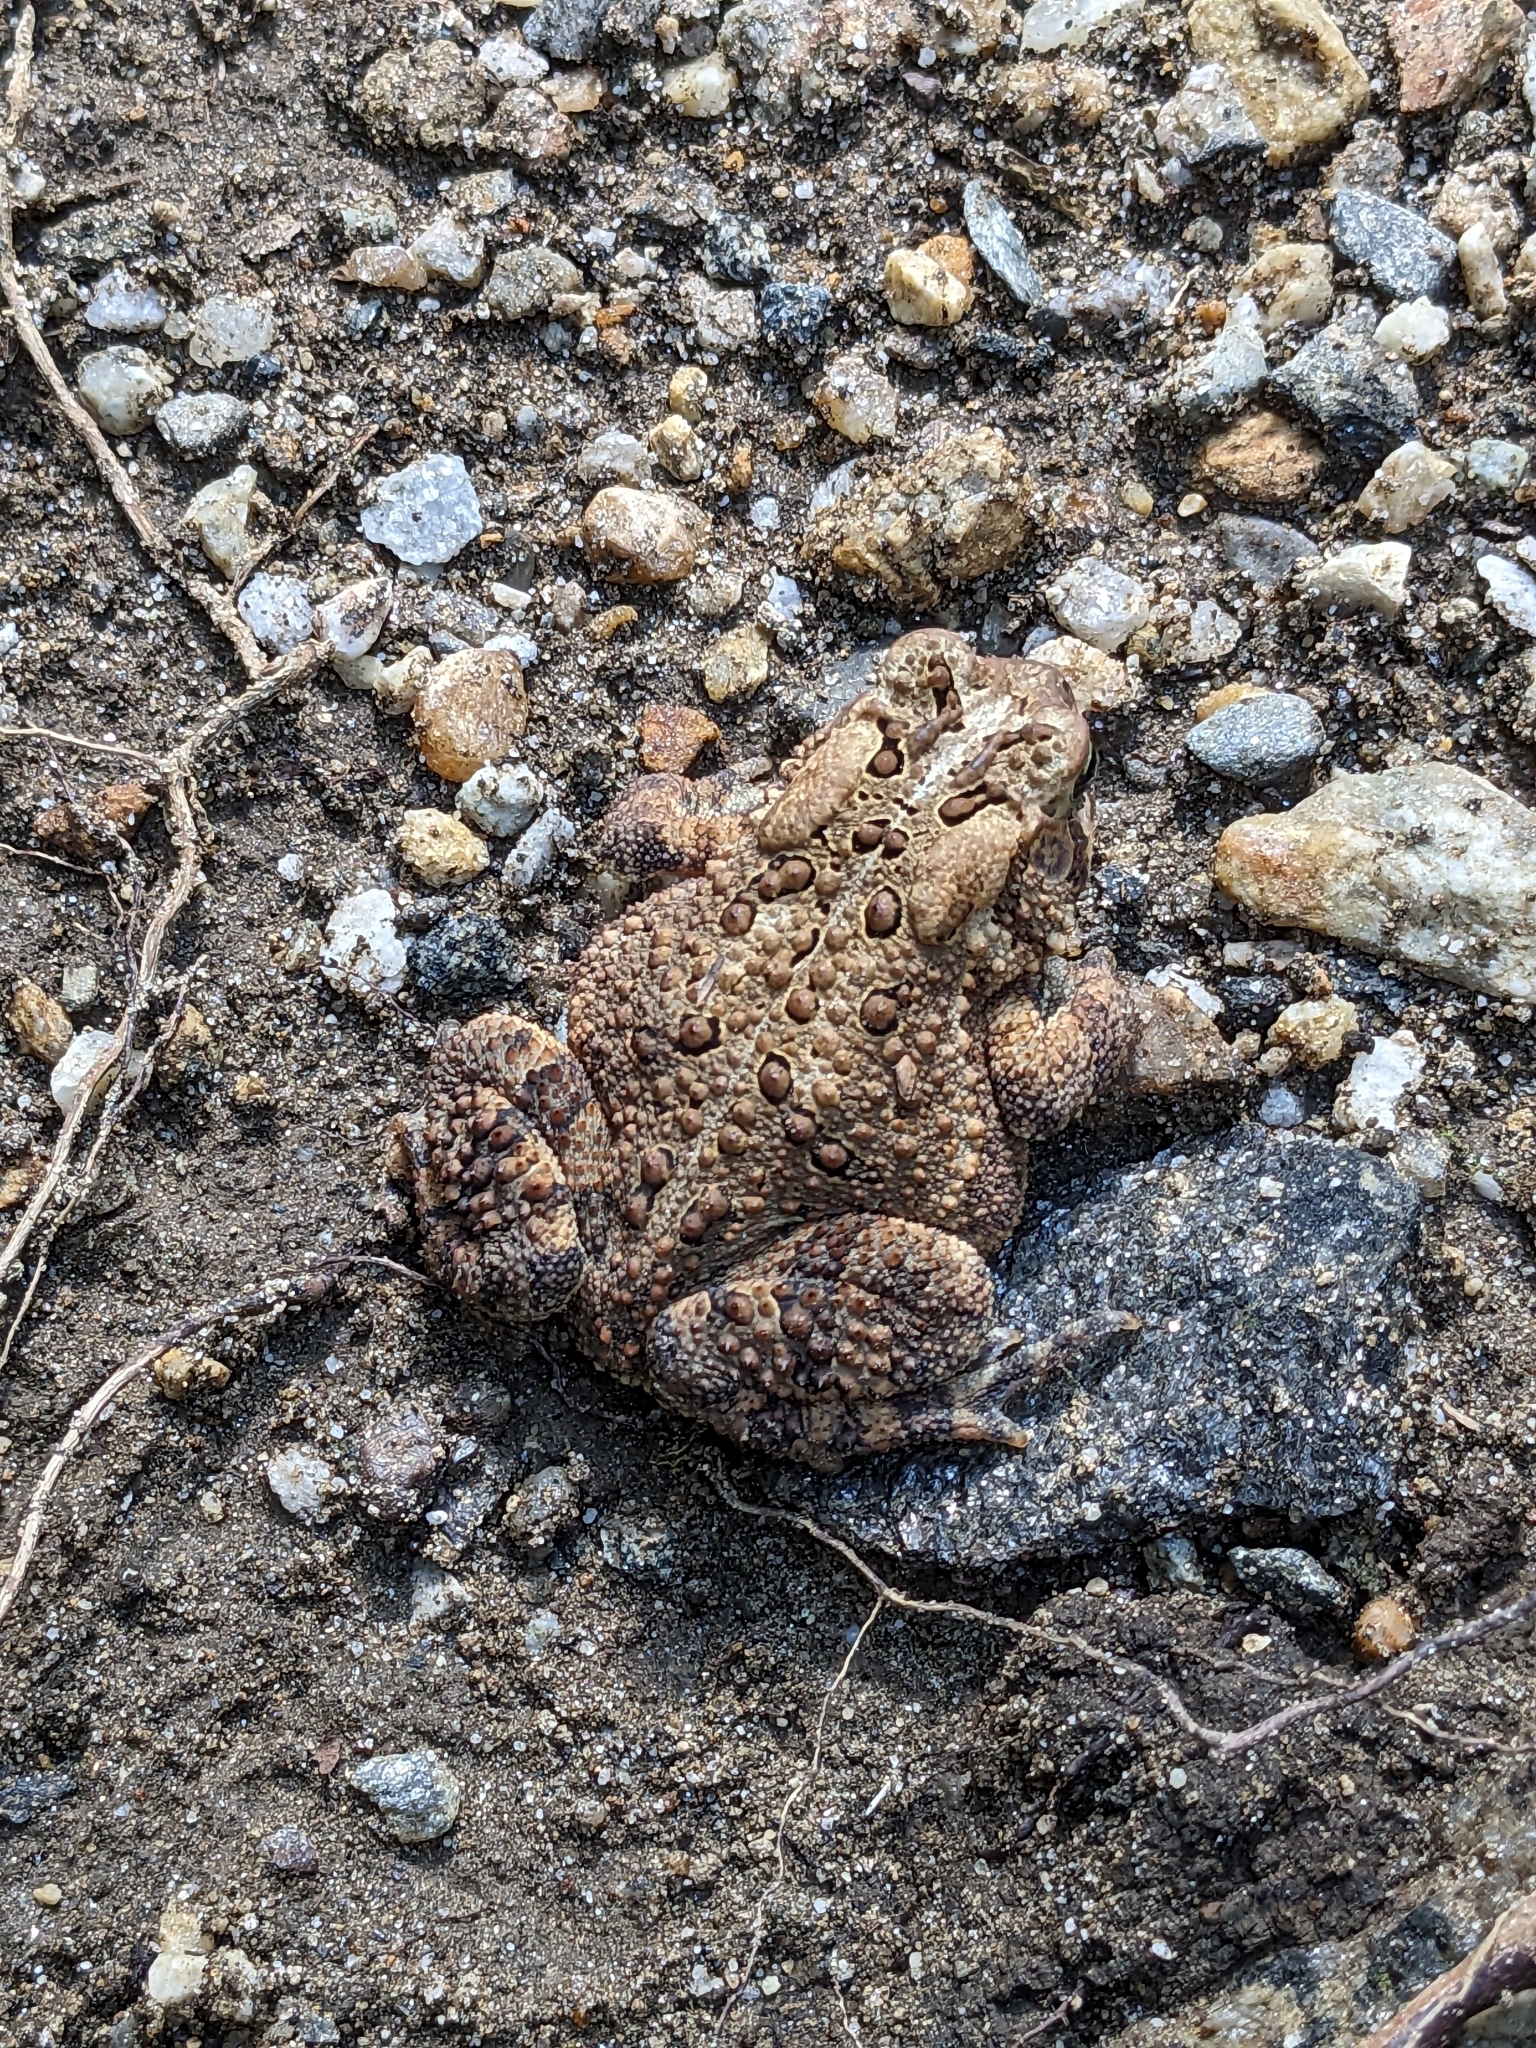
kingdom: Animalia
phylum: Chordata
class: Amphibia
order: Anura
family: Bufonidae
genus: Anaxyrus
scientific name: Anaxyrus americanus
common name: American toad
